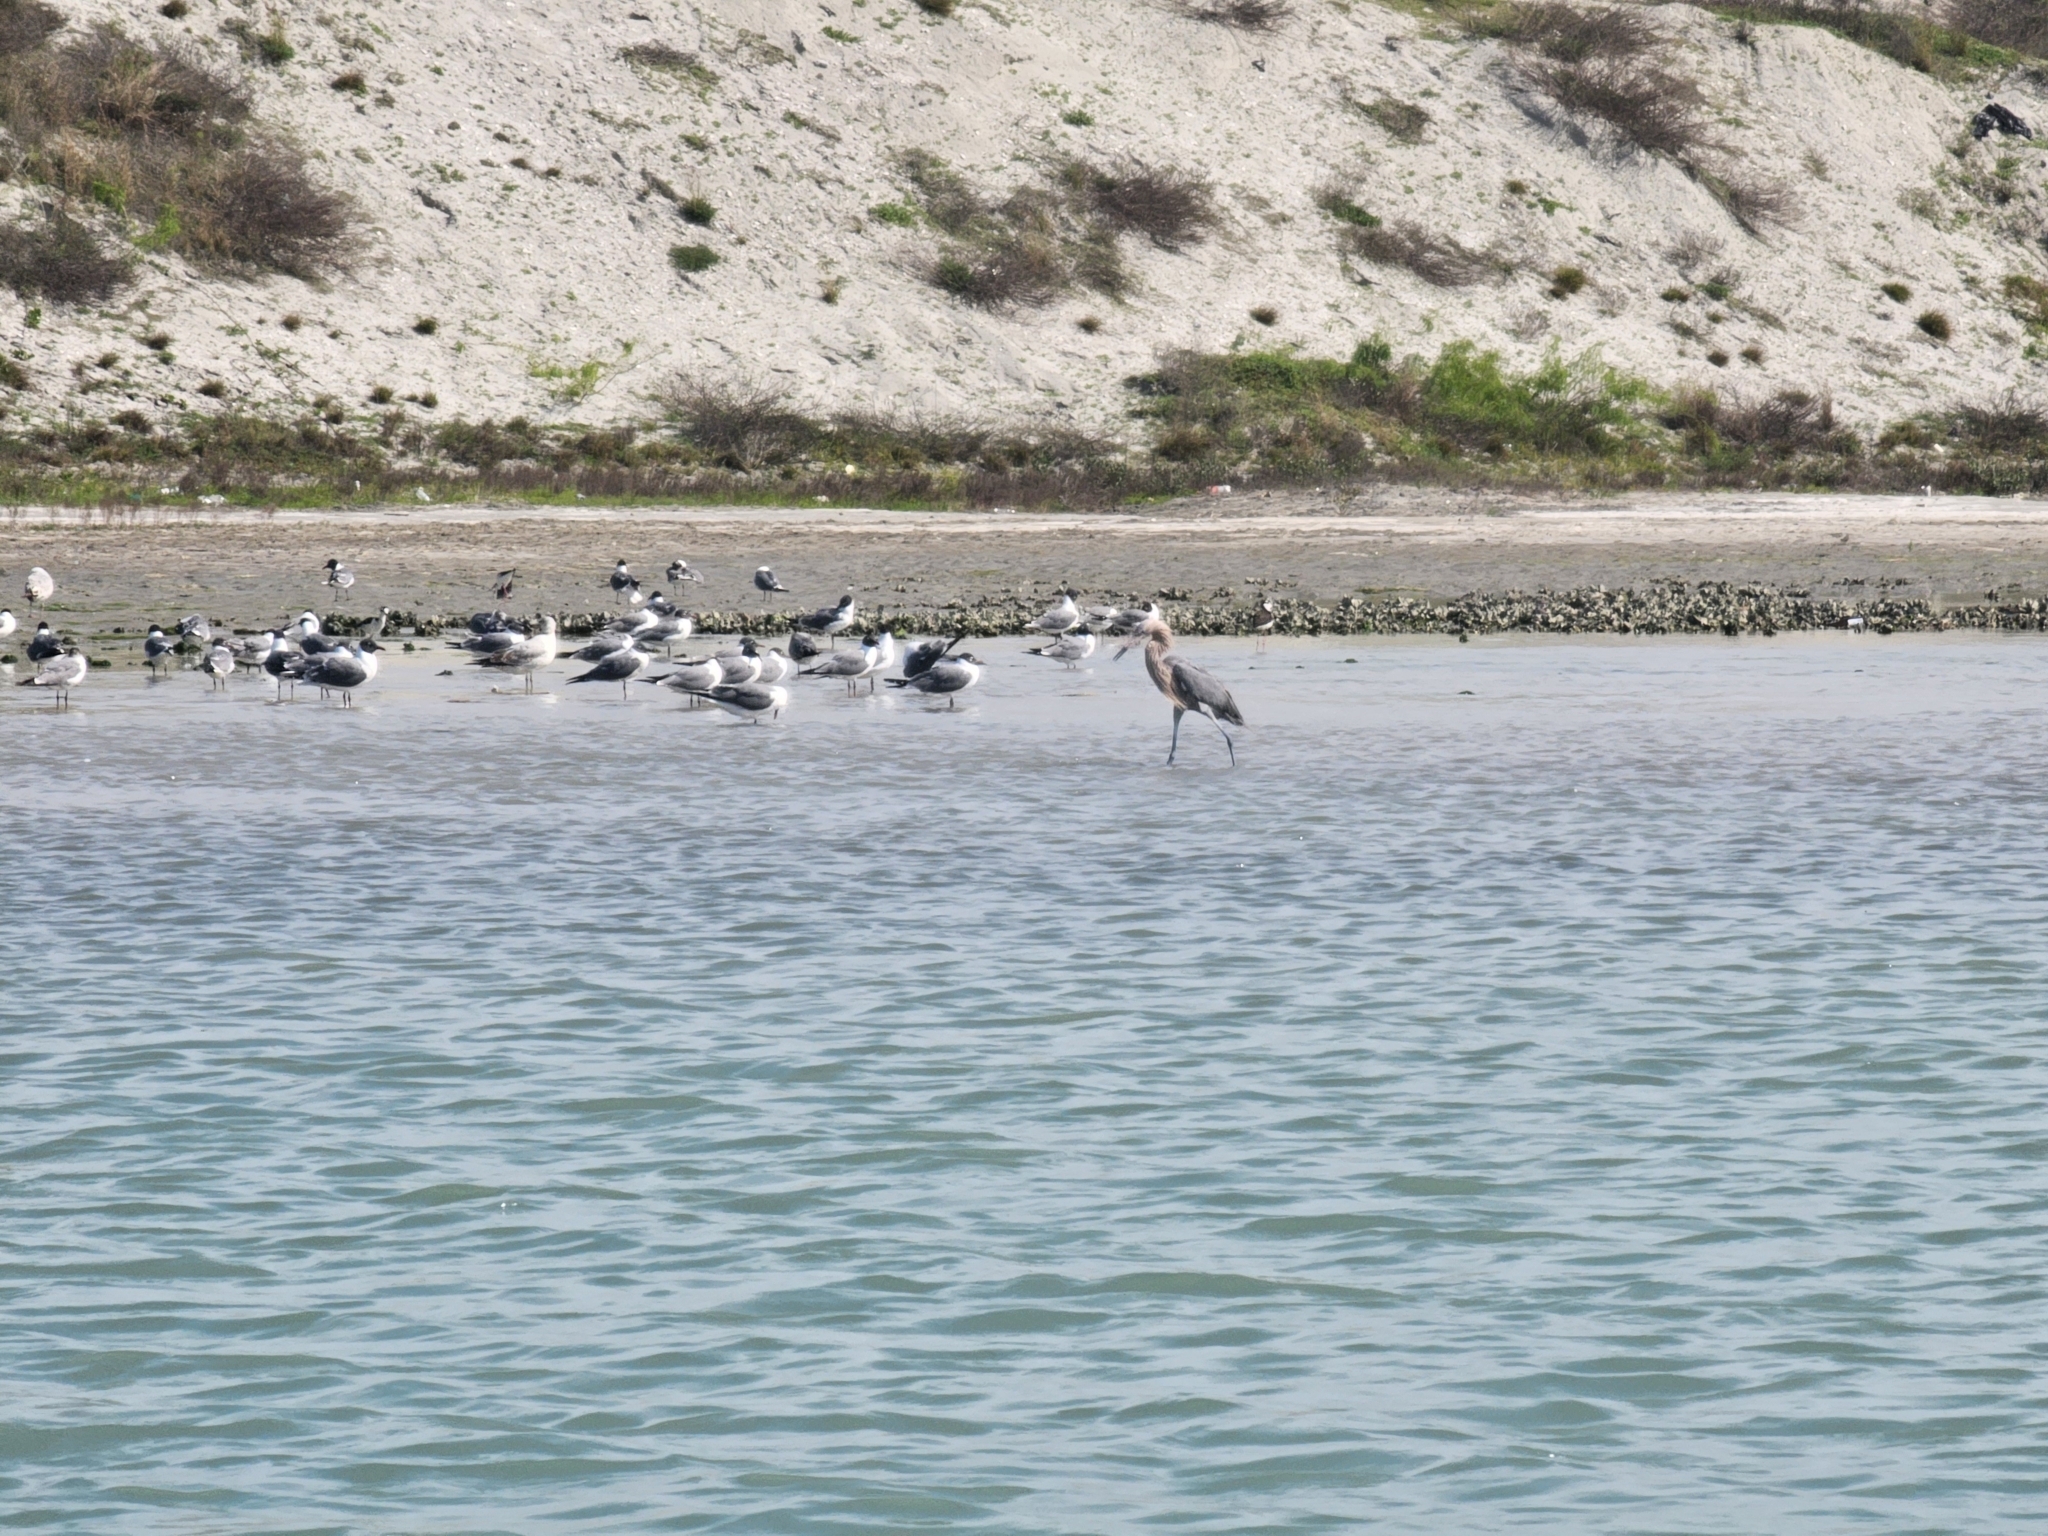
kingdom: Animalia
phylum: Chordata
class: Aves
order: Pelecaniformes
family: Ardeidae
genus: Egretta
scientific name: Egretta rufescens
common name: Reddish egret
